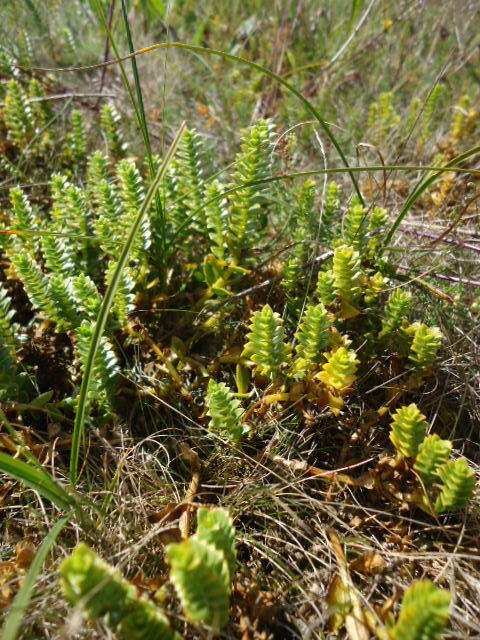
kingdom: Plantae
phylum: Tracheophyta
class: Magnoliopsida
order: Caryophyllales
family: Caryophyllaceae
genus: Honckenya
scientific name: Honckenya peploides
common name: Sea sandwort
